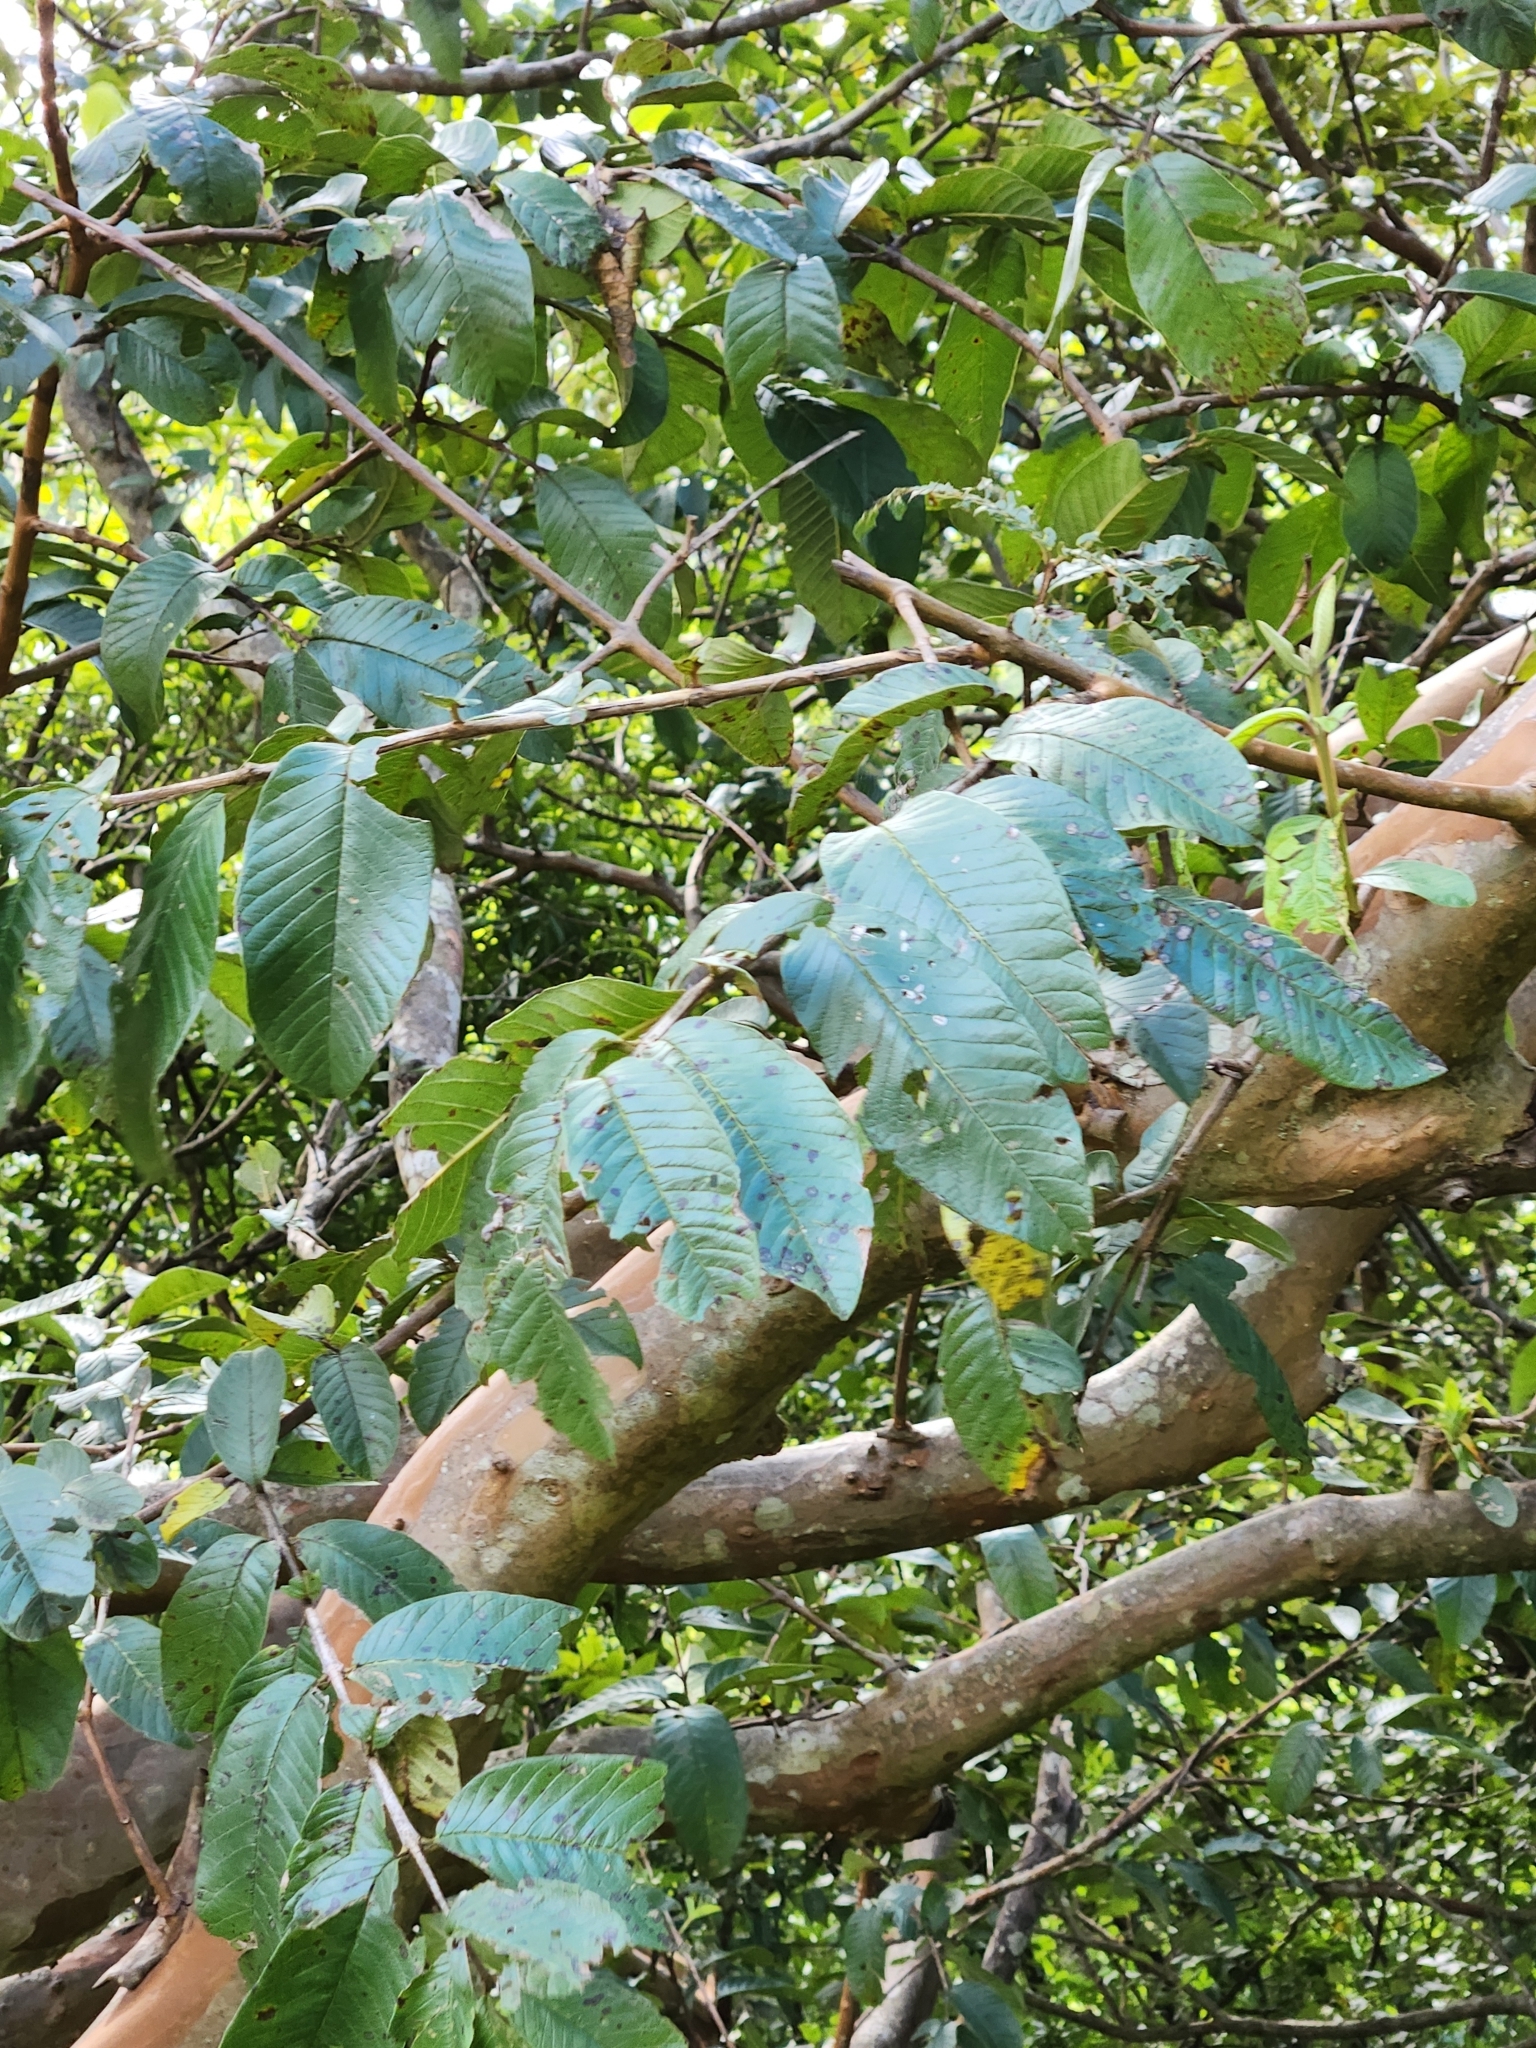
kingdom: Plantae
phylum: Tracheophyta
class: Magnoliopsida
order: Myrtales
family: Myrtaceae
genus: Psidium
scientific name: Psidium guajava
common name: Guava
